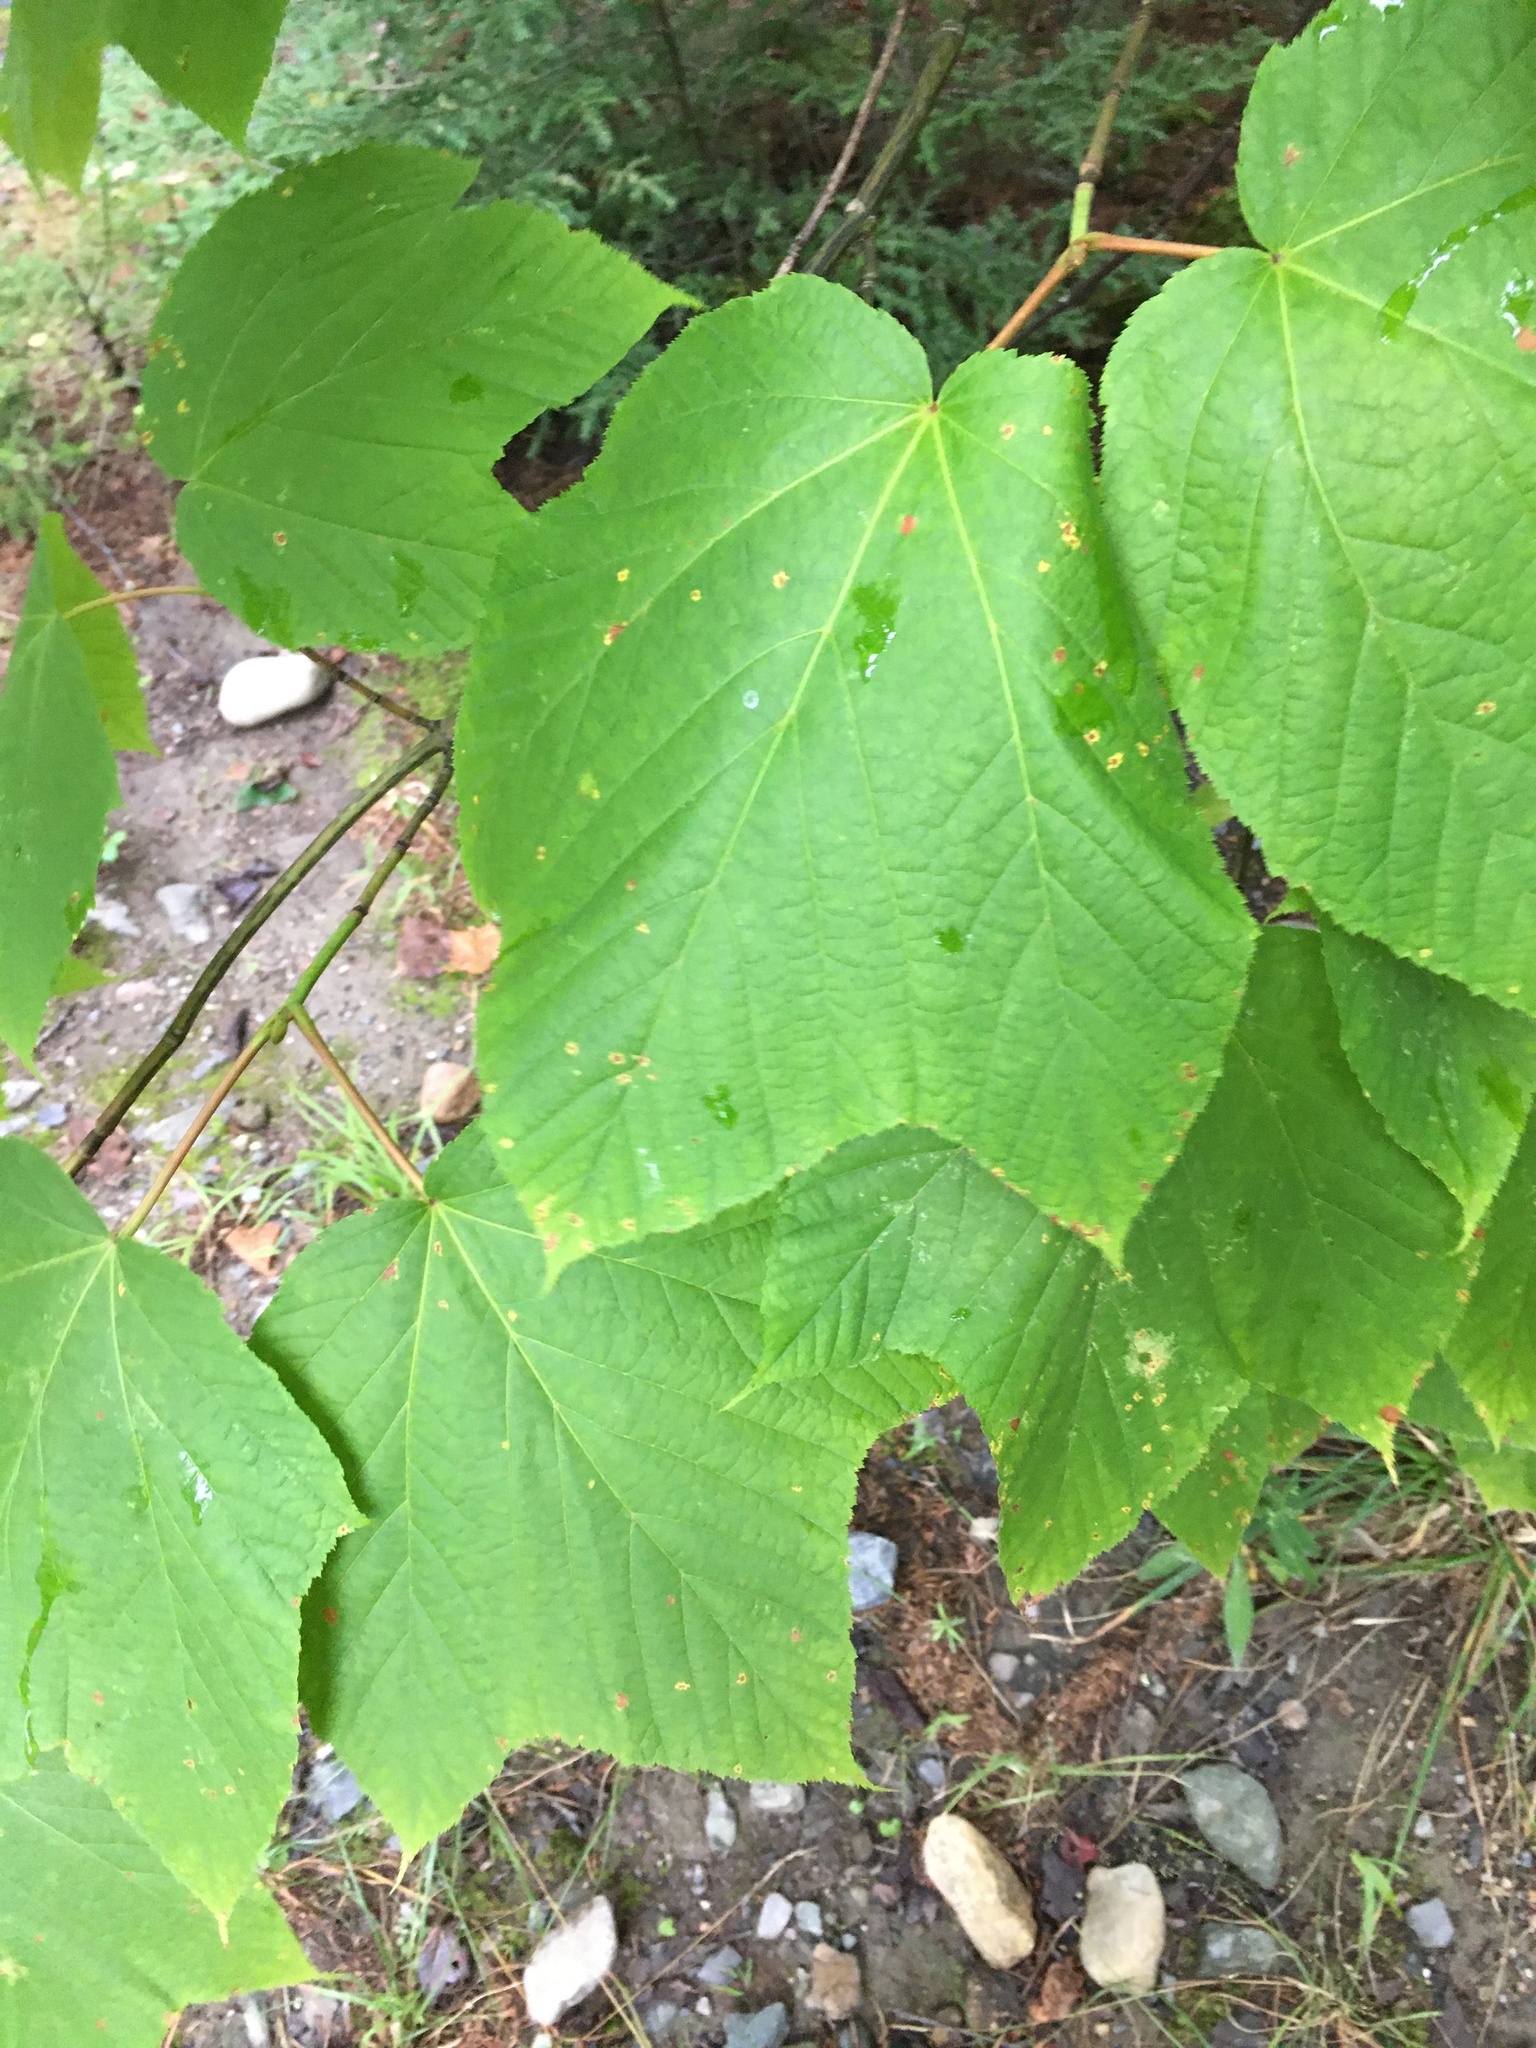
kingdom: Plantae
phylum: Tracheophyta
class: Magnoliopsida
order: Sapindales
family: Sapindaceae
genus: Acer
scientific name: Acer pensylvanicum
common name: Moosewood
